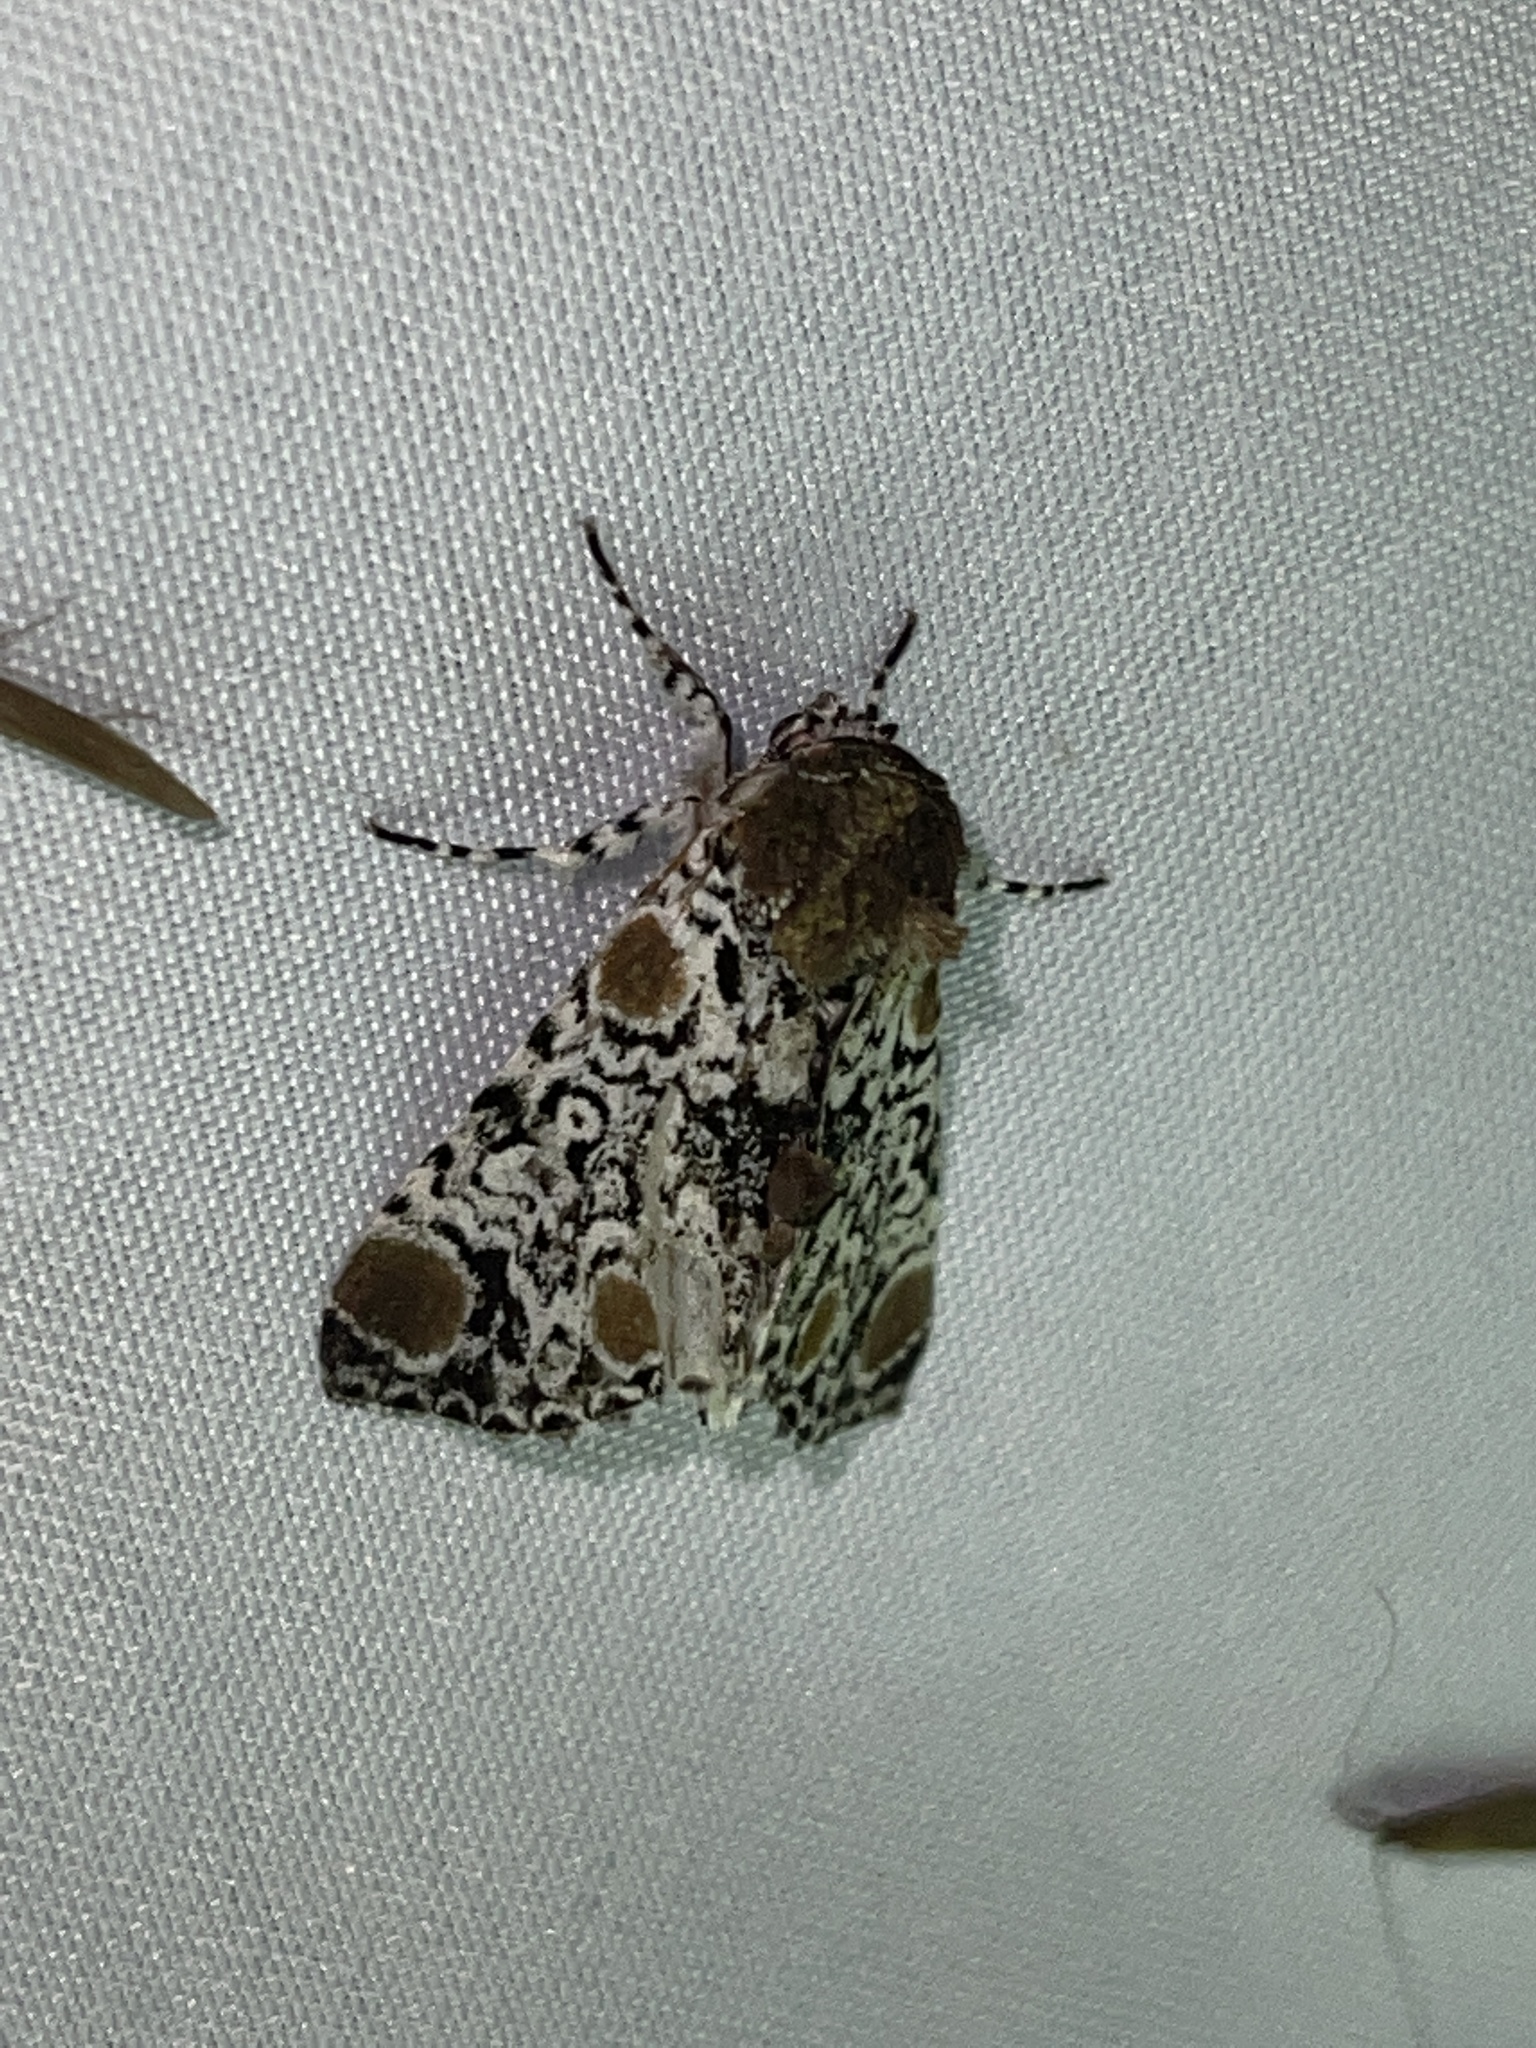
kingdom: Animalia
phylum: Arthropoda
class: Insecta
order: Lepidoptera
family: Noctuidae
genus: Harrisimemna
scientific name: Harrisimemna trisignata
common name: Harris threespot
